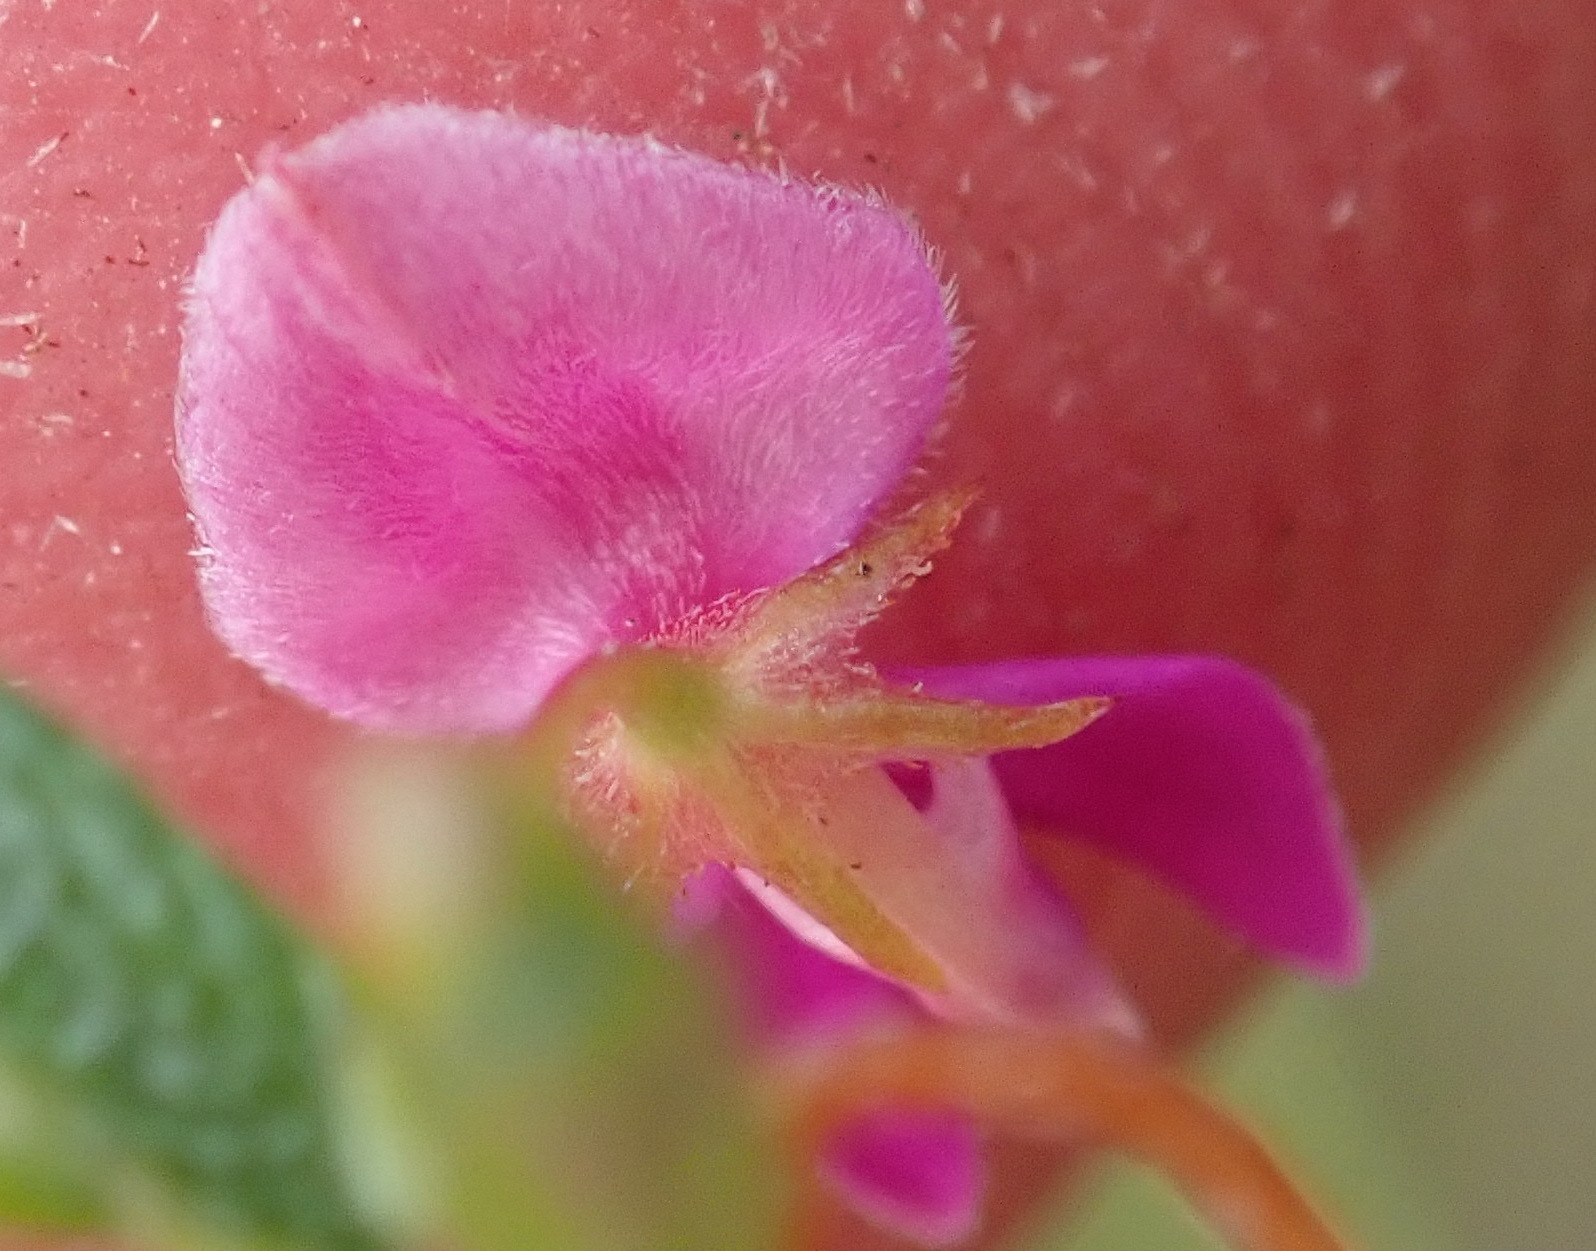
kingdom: Plantae
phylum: Tracheophyta
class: Magnoliopsida
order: Fabales
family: Fabaceae
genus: Indigofera
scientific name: Indigofera setosa
